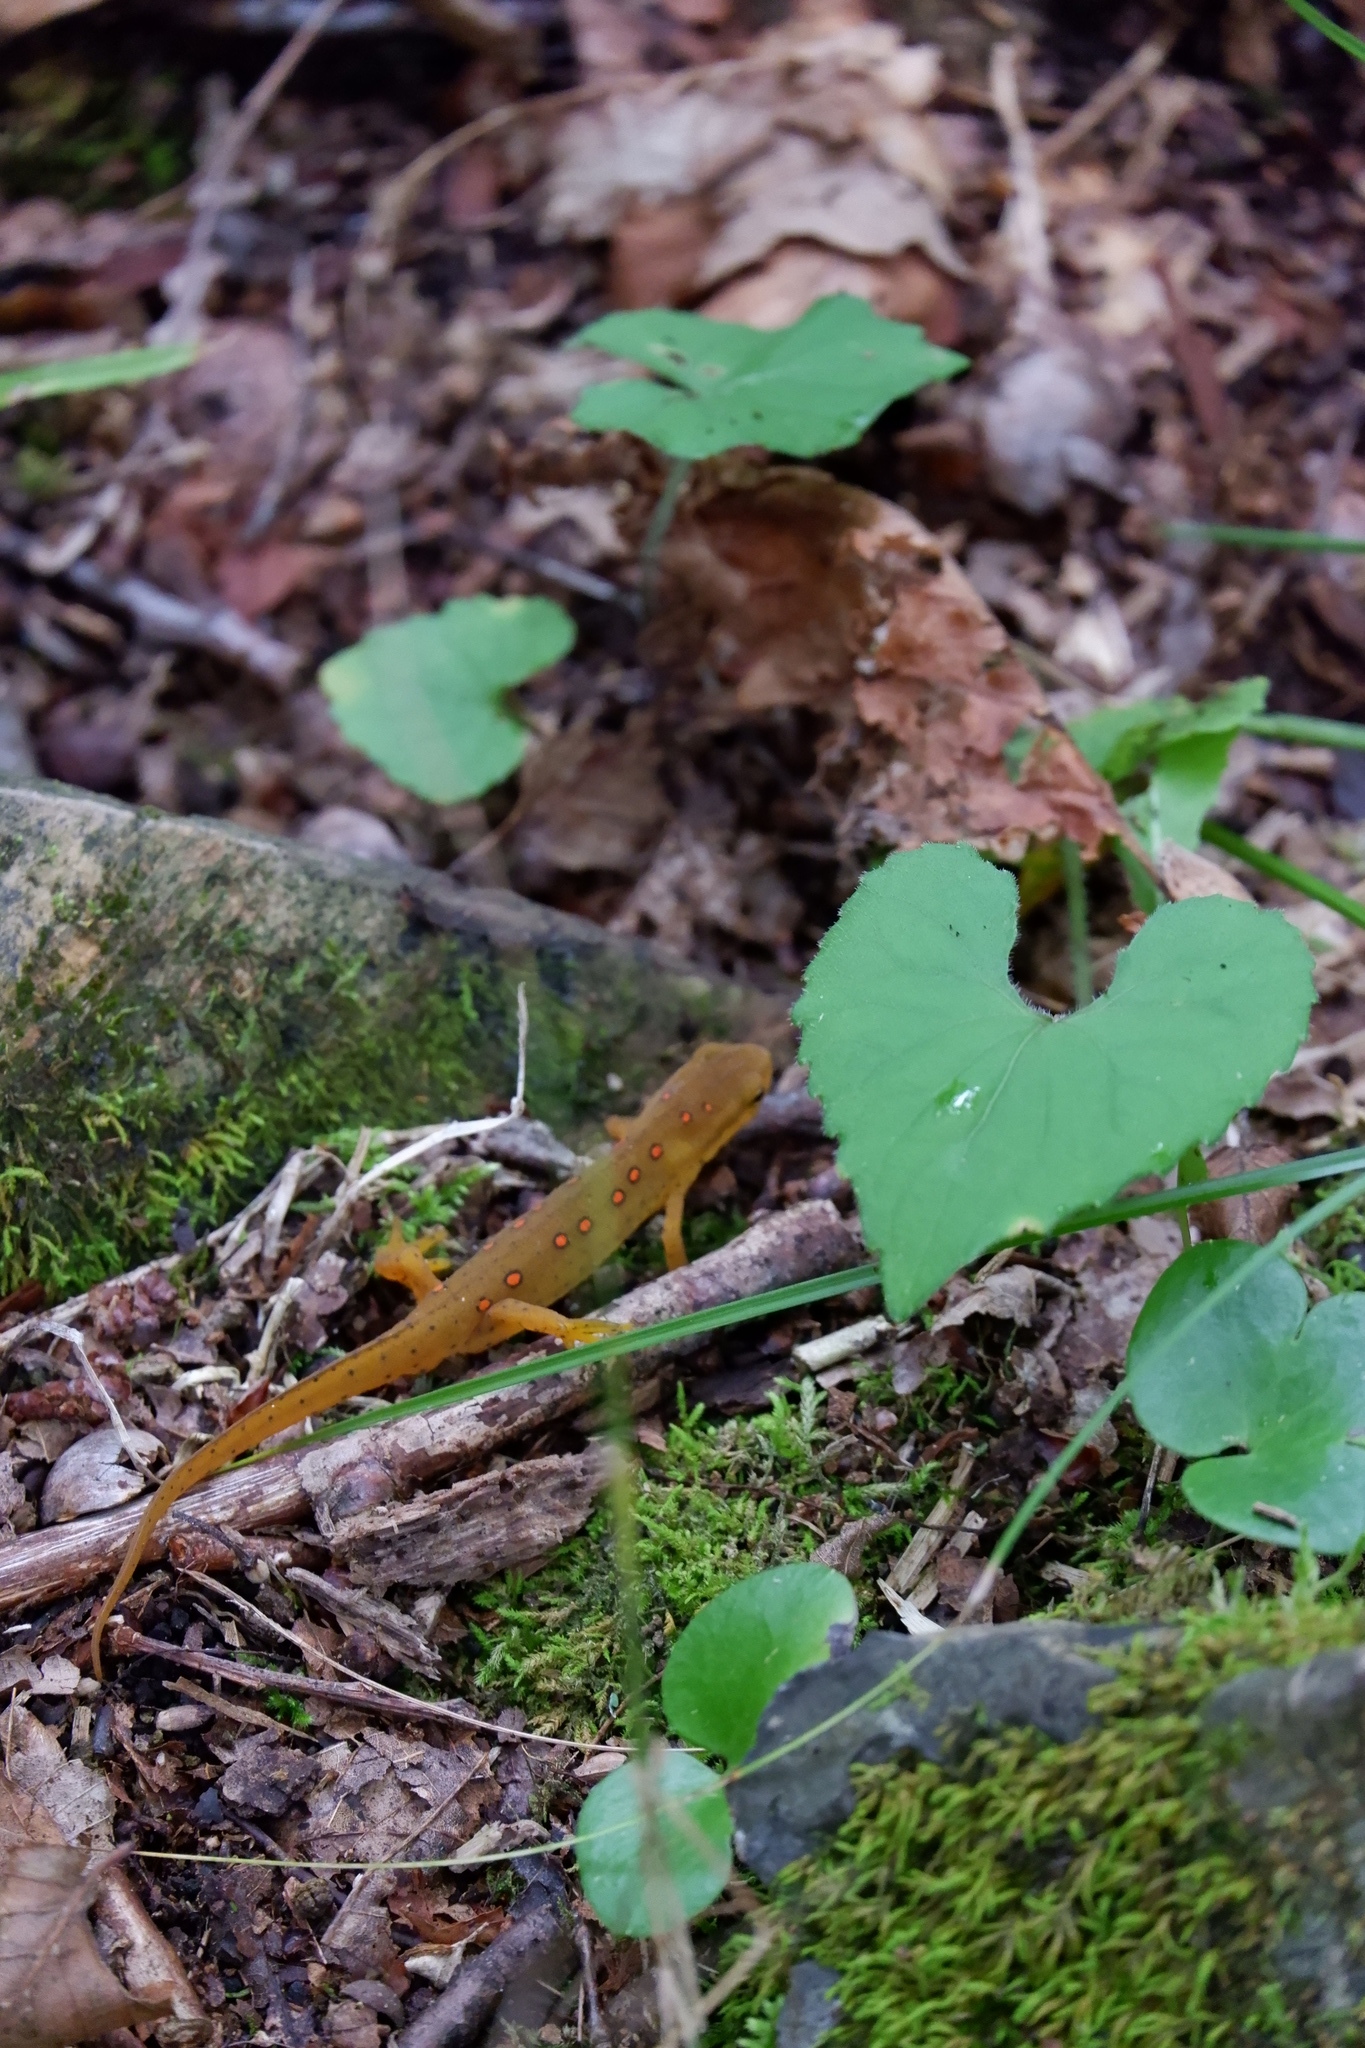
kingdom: Animalia
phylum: Chordata
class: Amphibia
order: Caudata
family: Salamandridae
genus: Notophthalmus
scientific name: Notophthalmus viridescens
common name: Eastern newt
